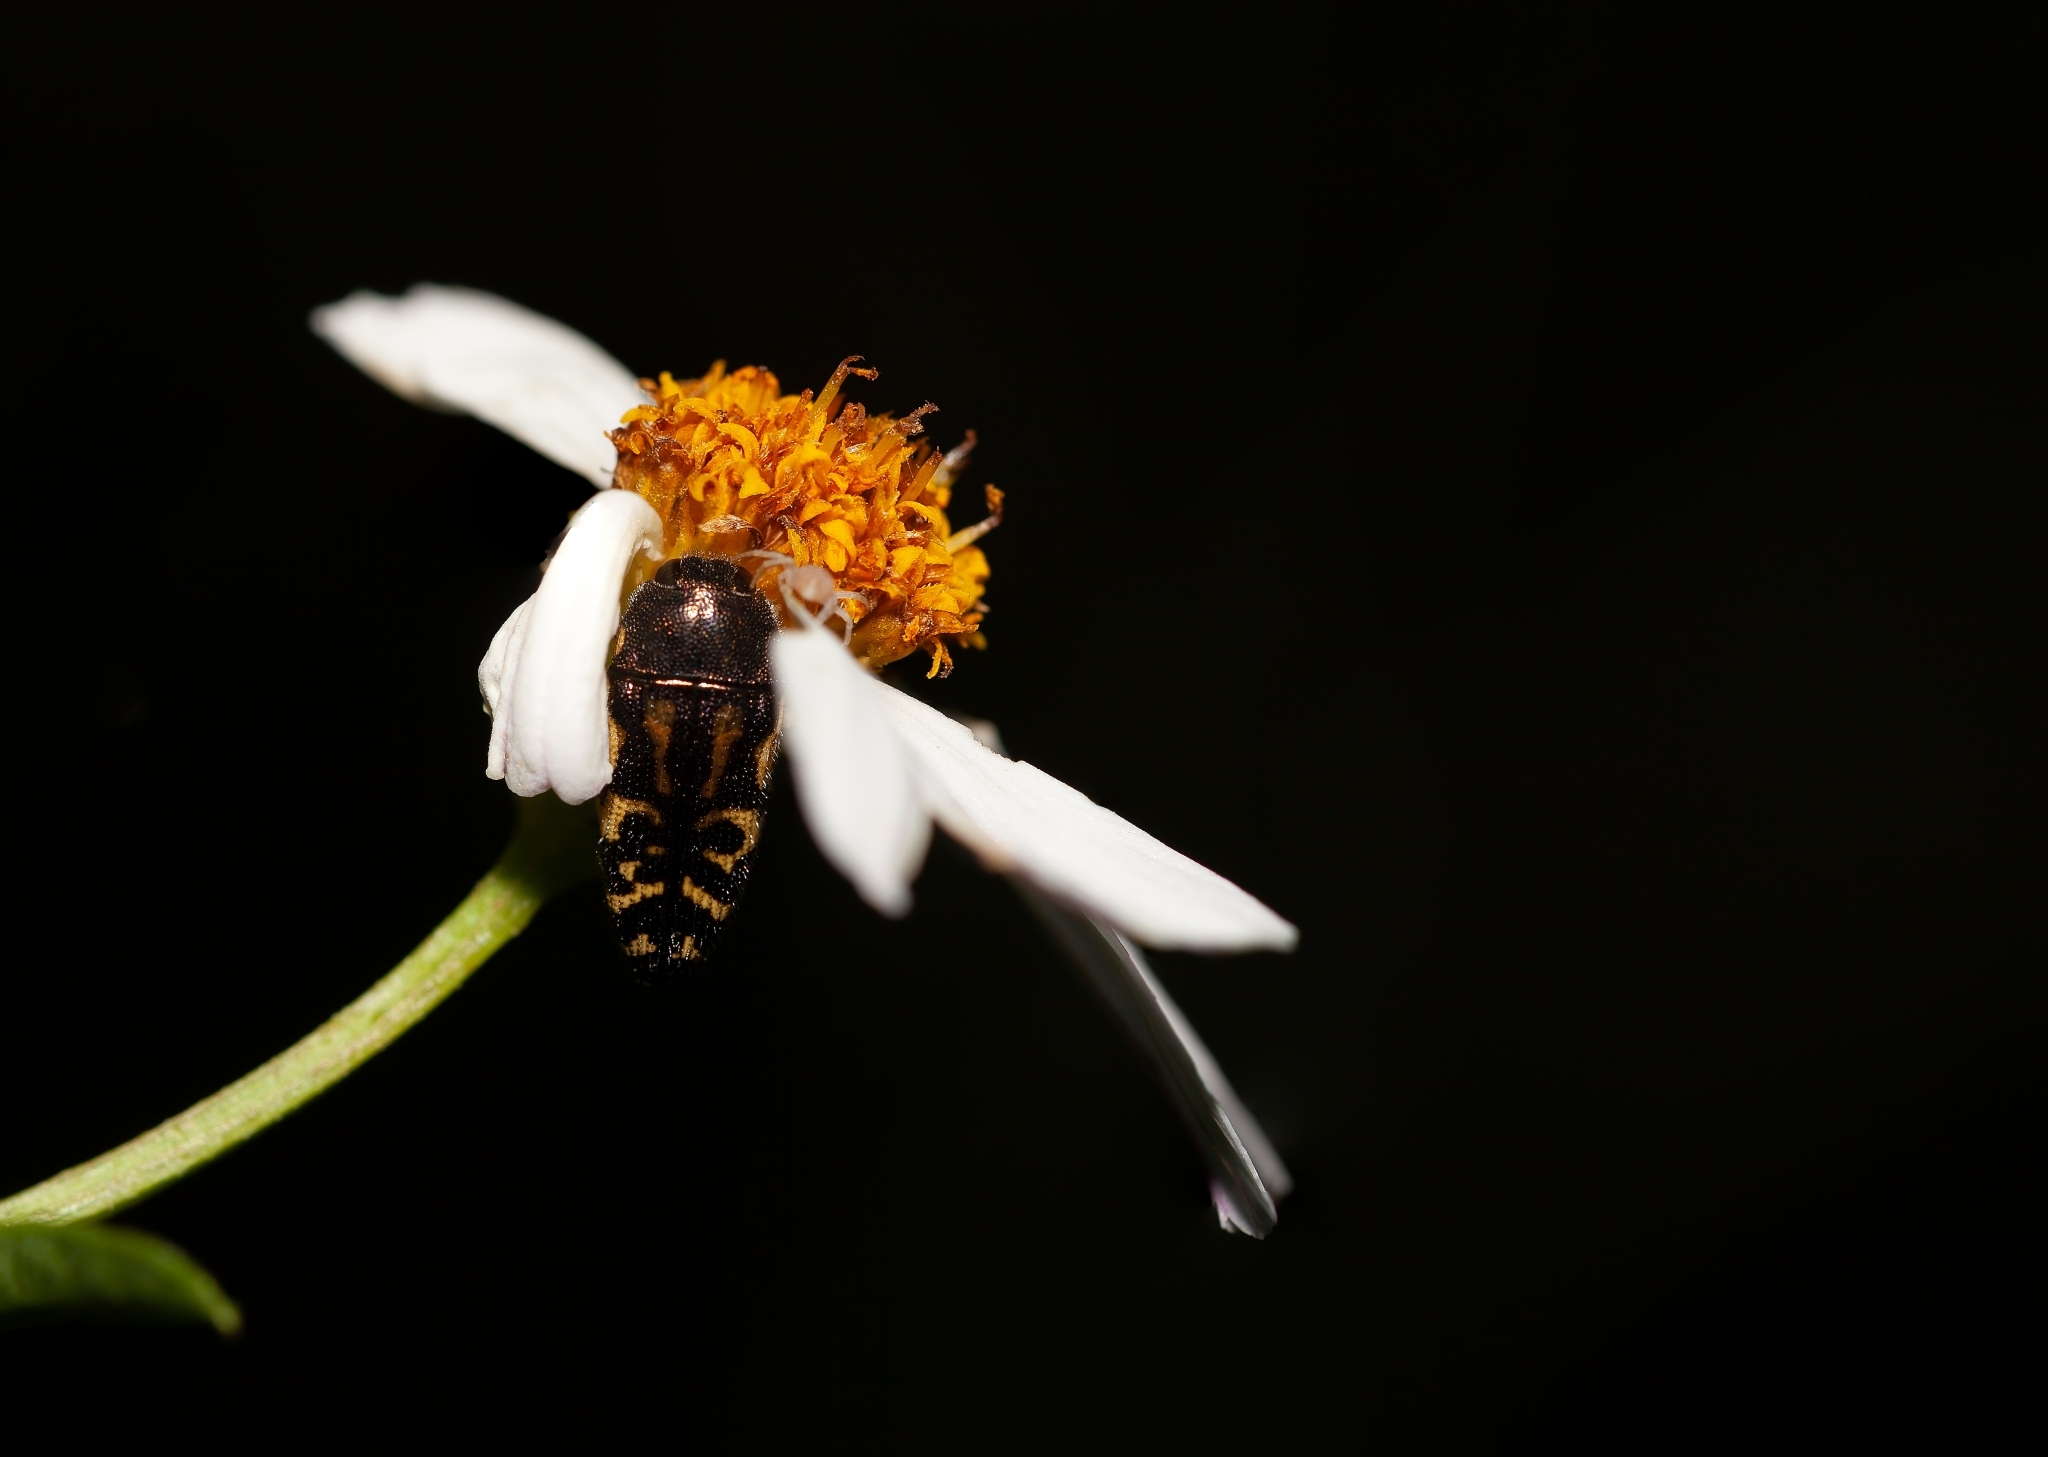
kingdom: Animalia
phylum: Arthropoda
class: Insecta
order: Coleoptera
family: Buprestidae
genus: Acmaeodera
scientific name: Acmaeodera pulchella
